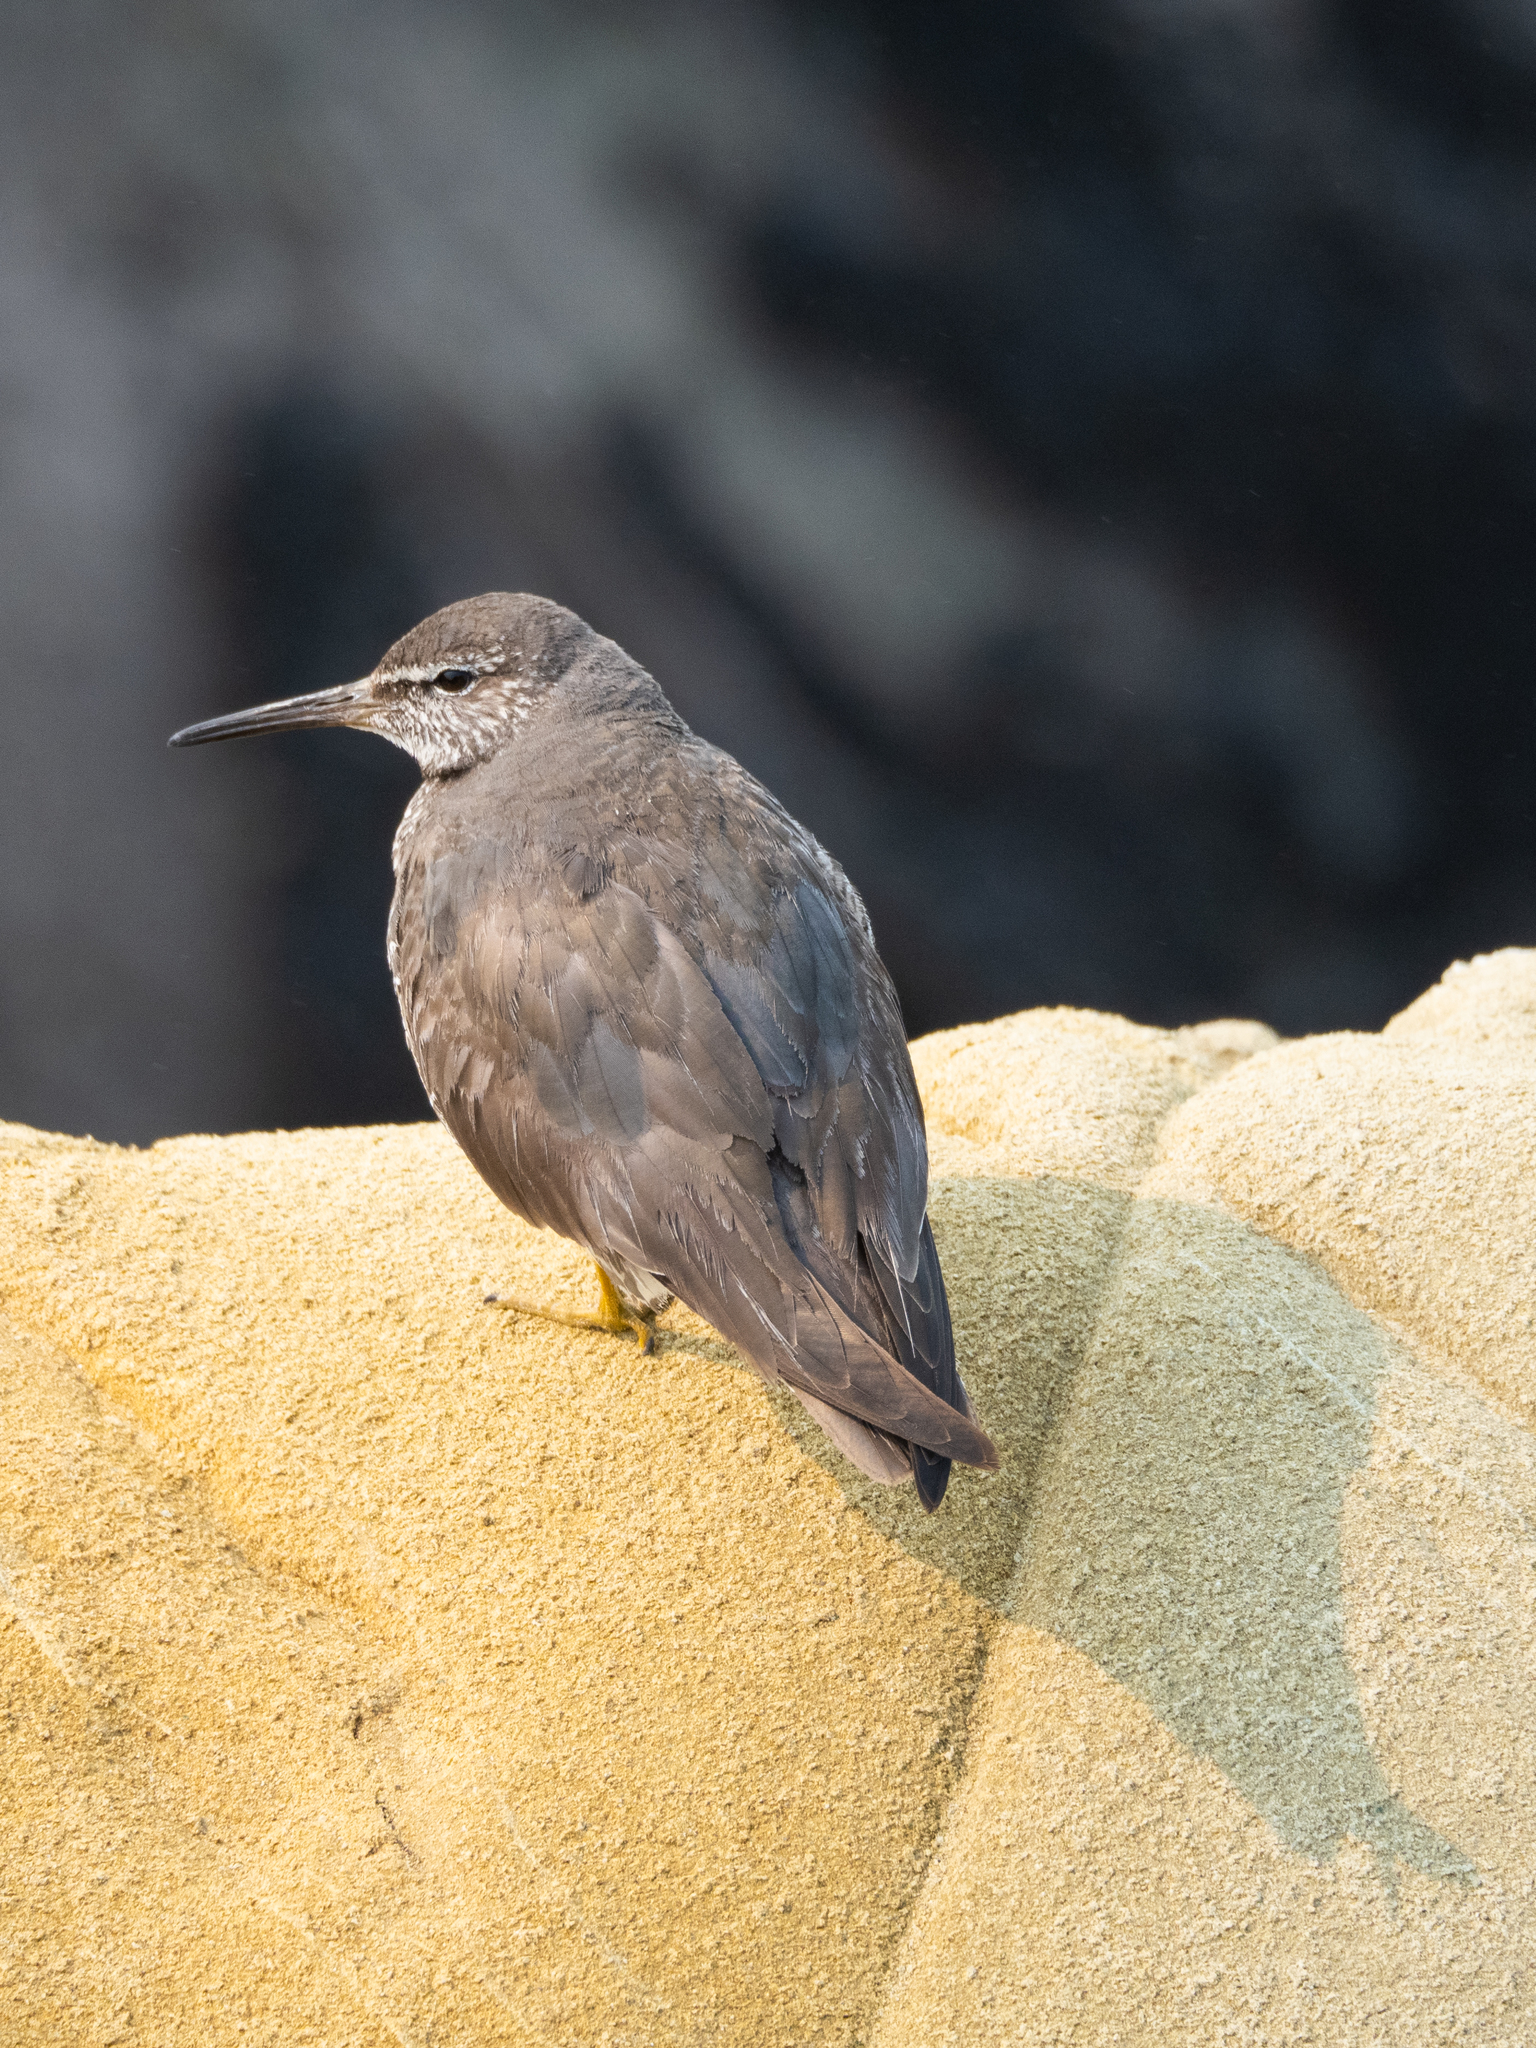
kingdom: Animalia
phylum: Chordata
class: Aves
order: Charadriiformes
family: Scolopacidae
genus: Tringa
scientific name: Tringa incana
